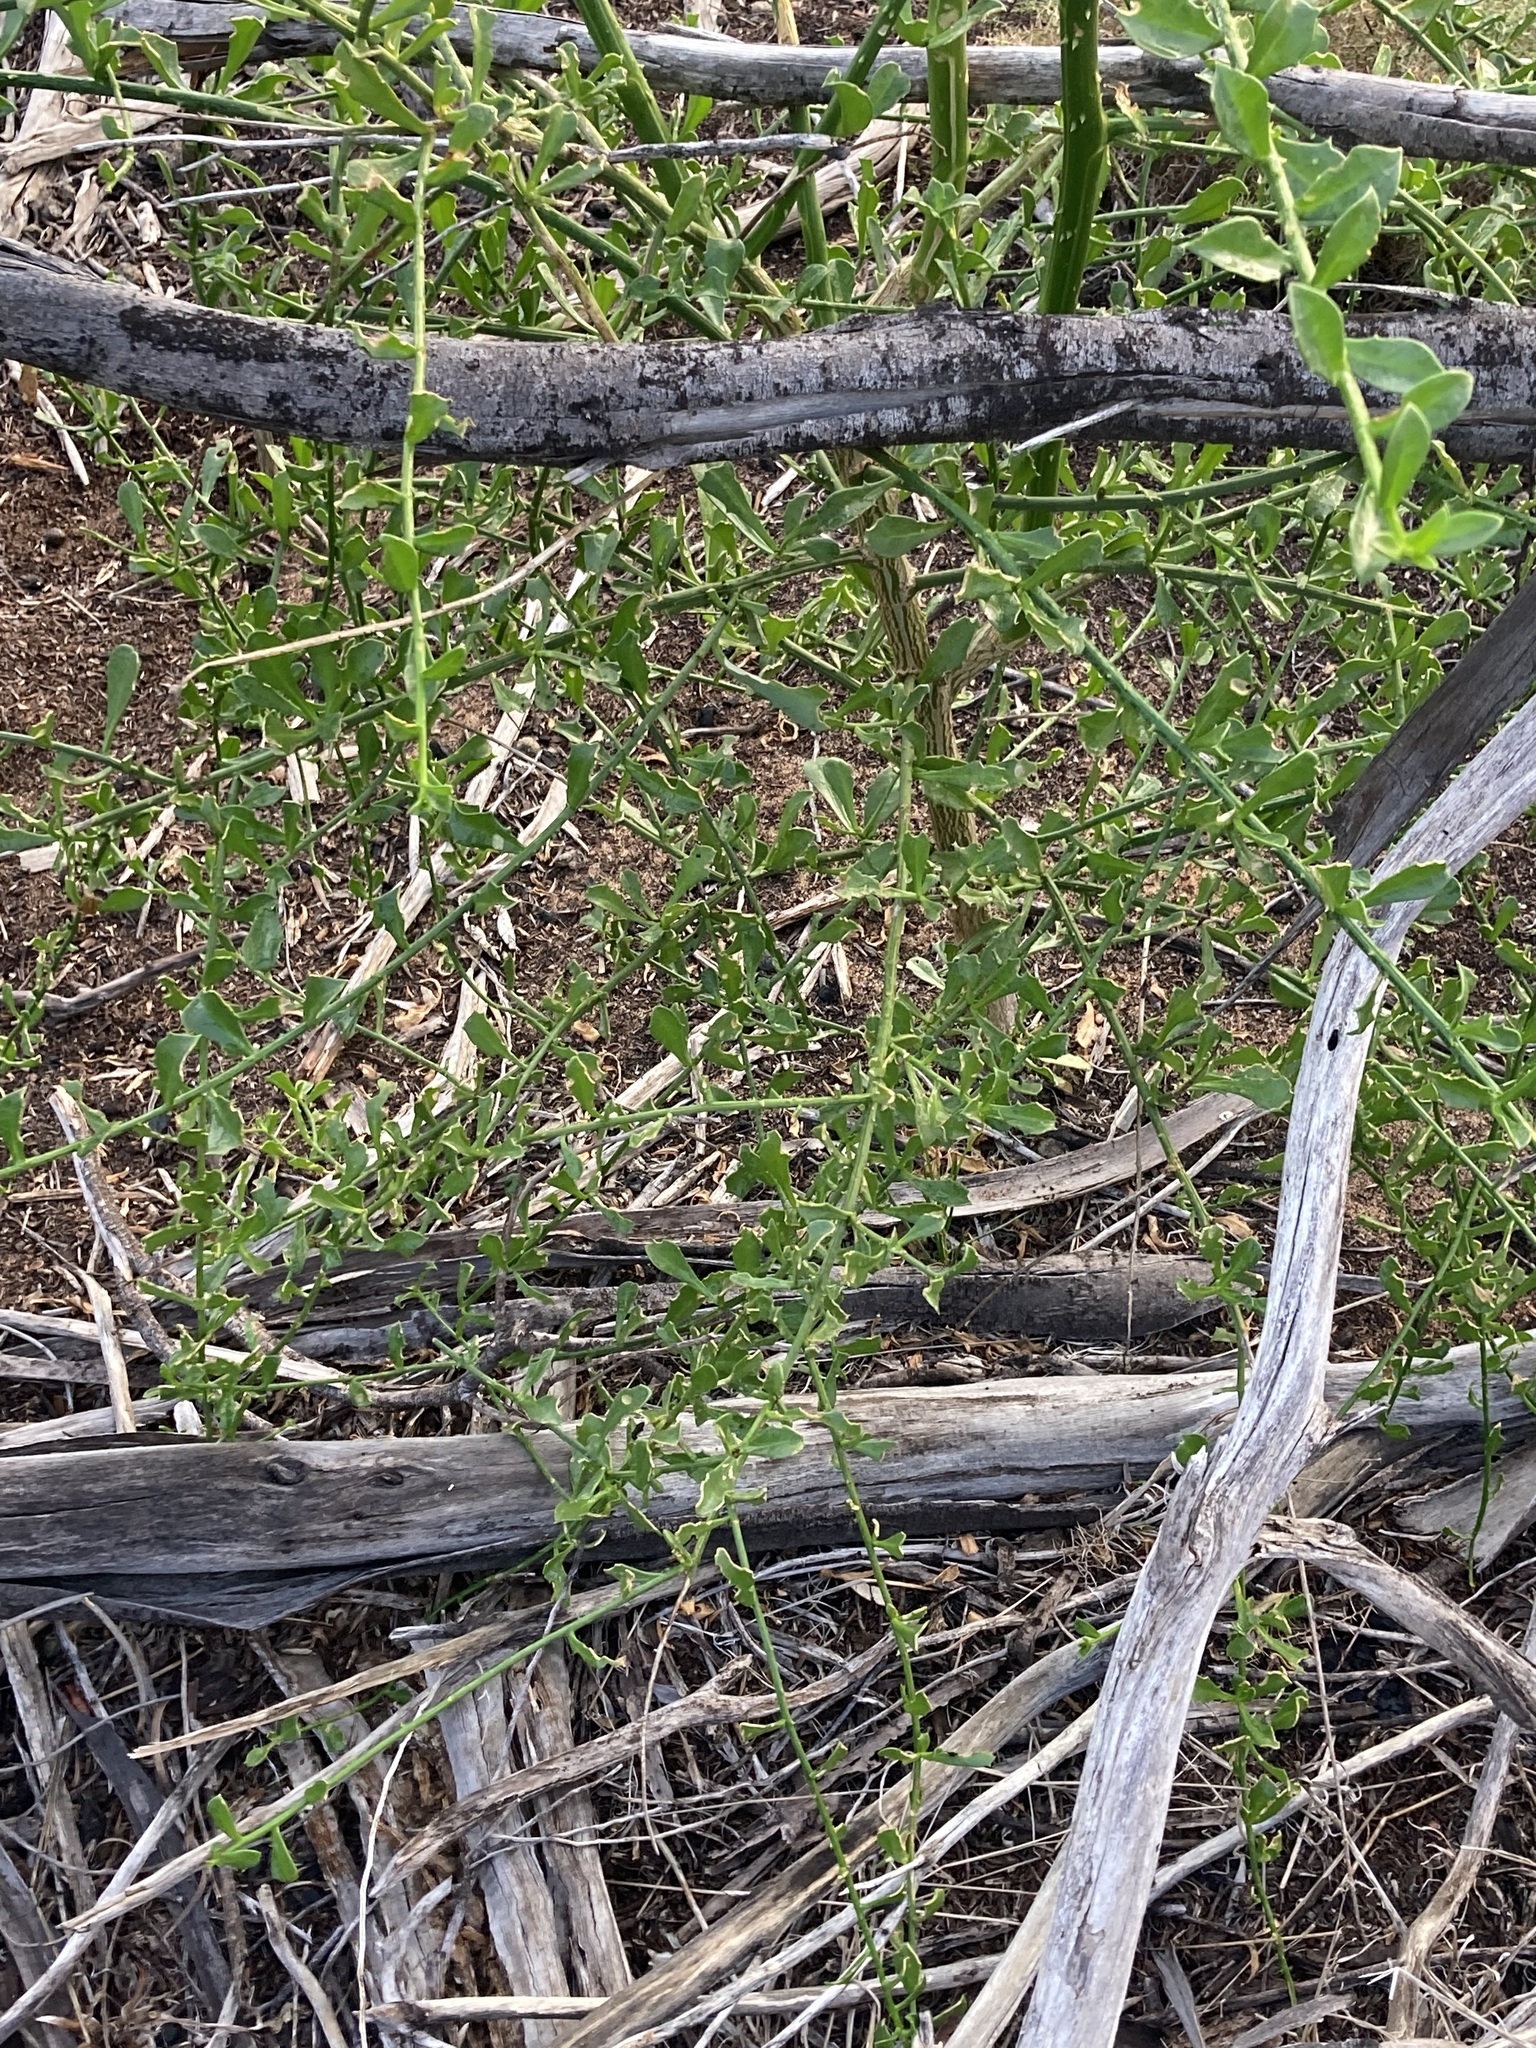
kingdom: Plantae
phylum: Tracheophyta
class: Magnoliopsida
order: Solanales
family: Solanaceae
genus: Anthocercis
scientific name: Anthocercis littorea
